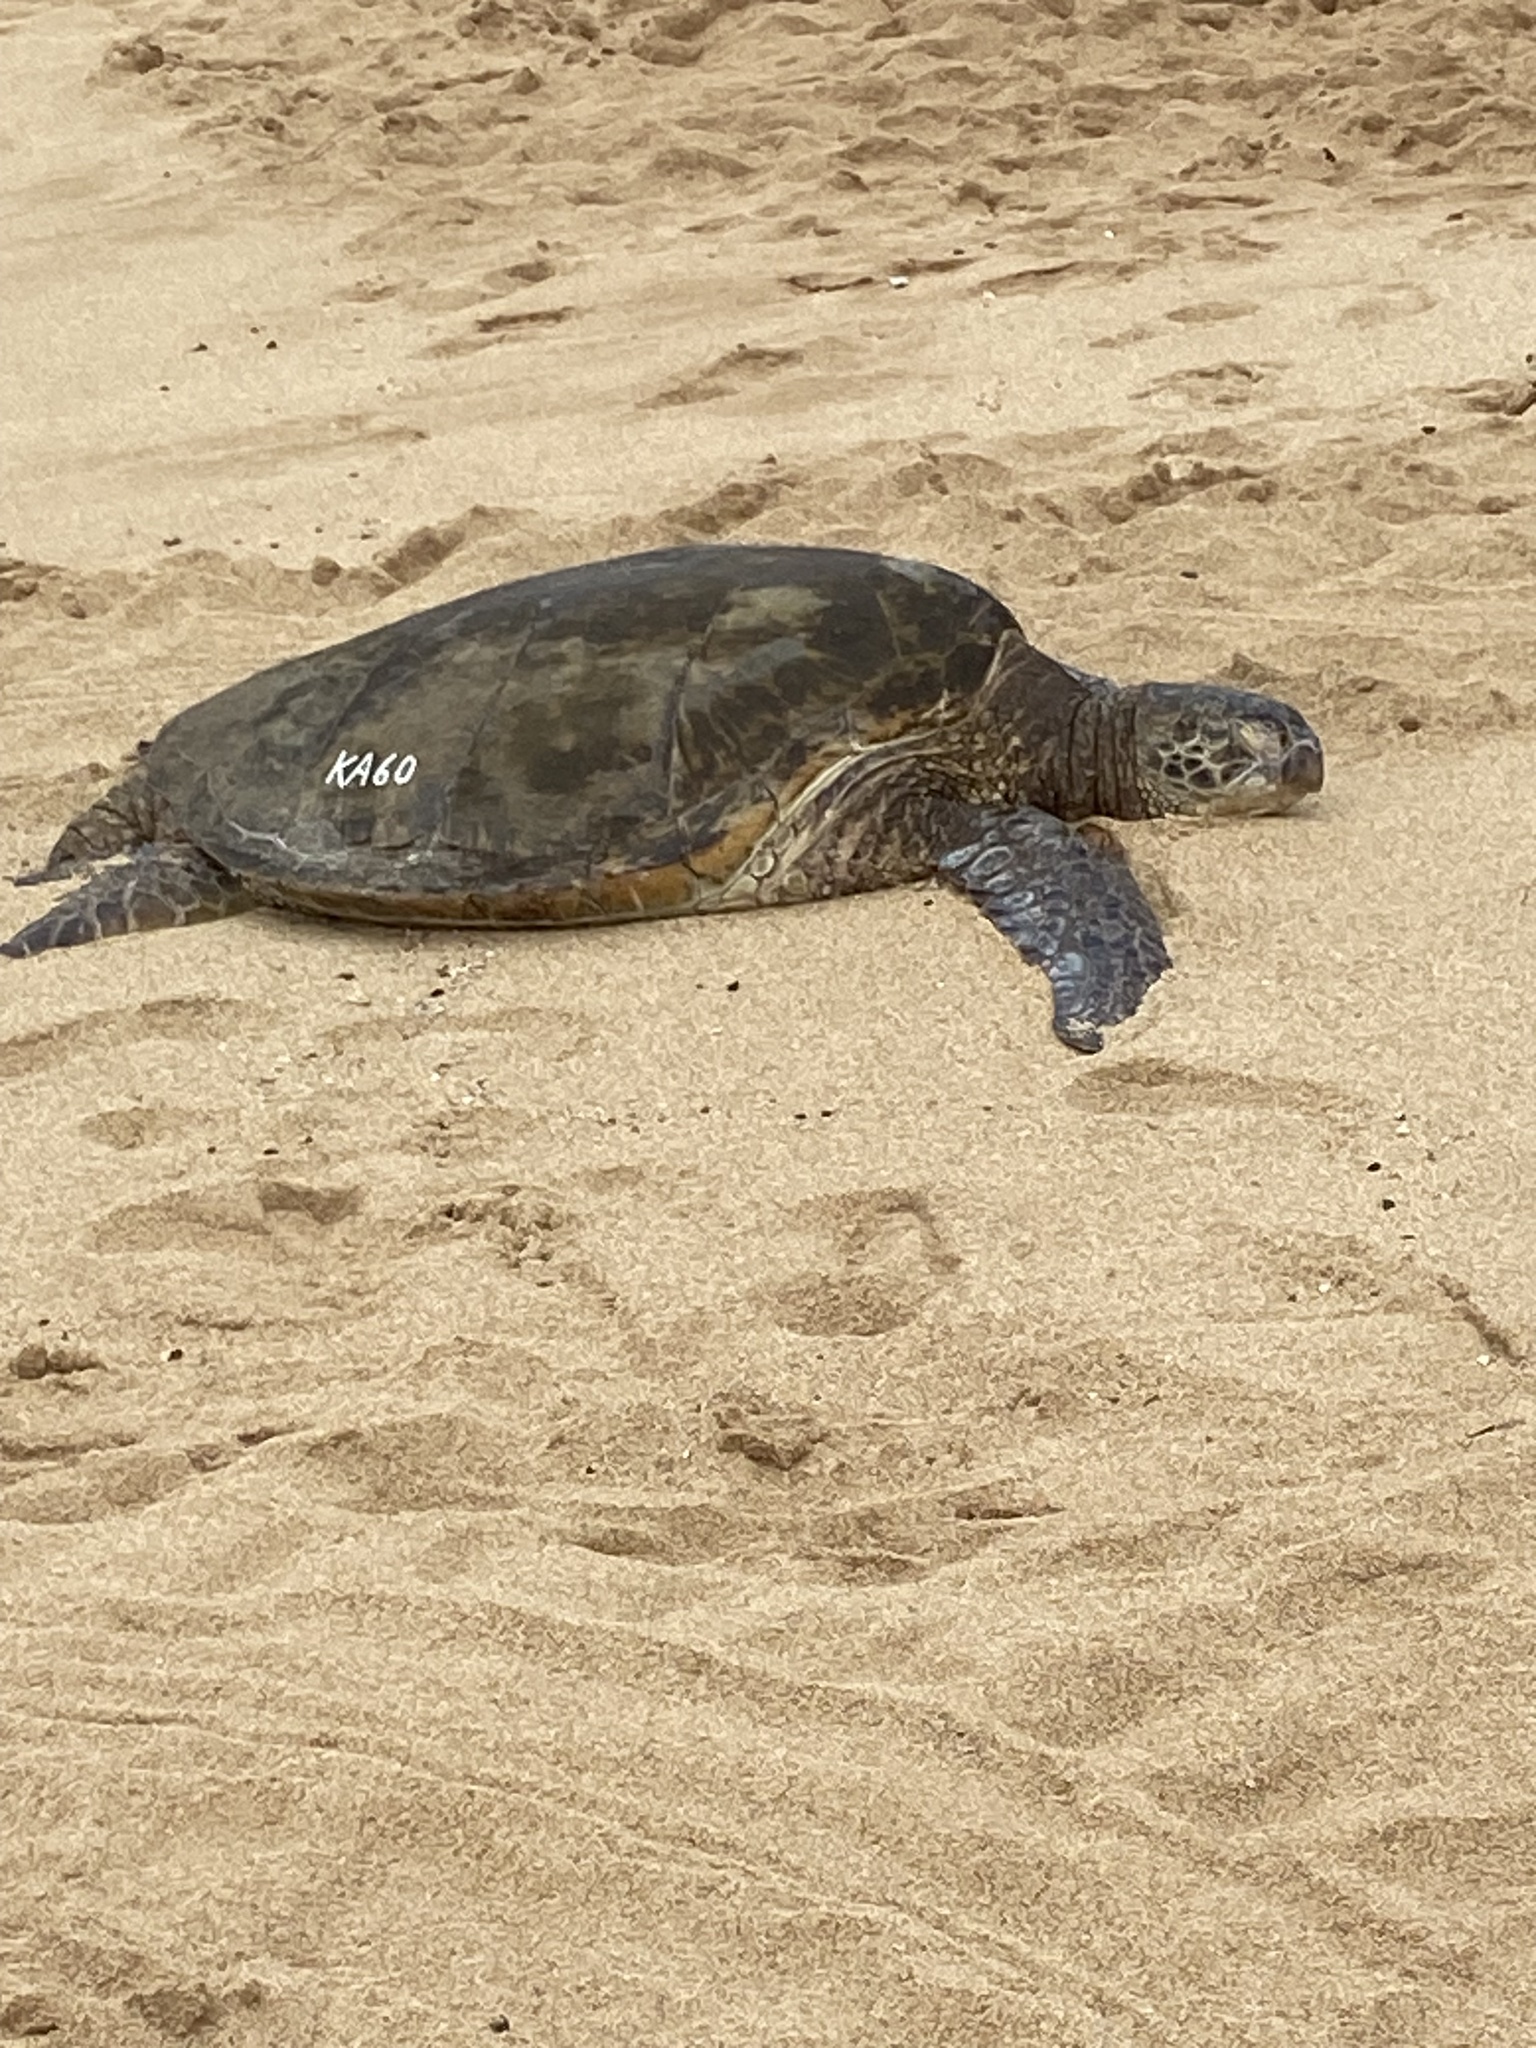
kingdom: Animalia
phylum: Chordata
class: Testudines
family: Cheloniidae
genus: Chelonia
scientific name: Chelonia mydas
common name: Green turtle
